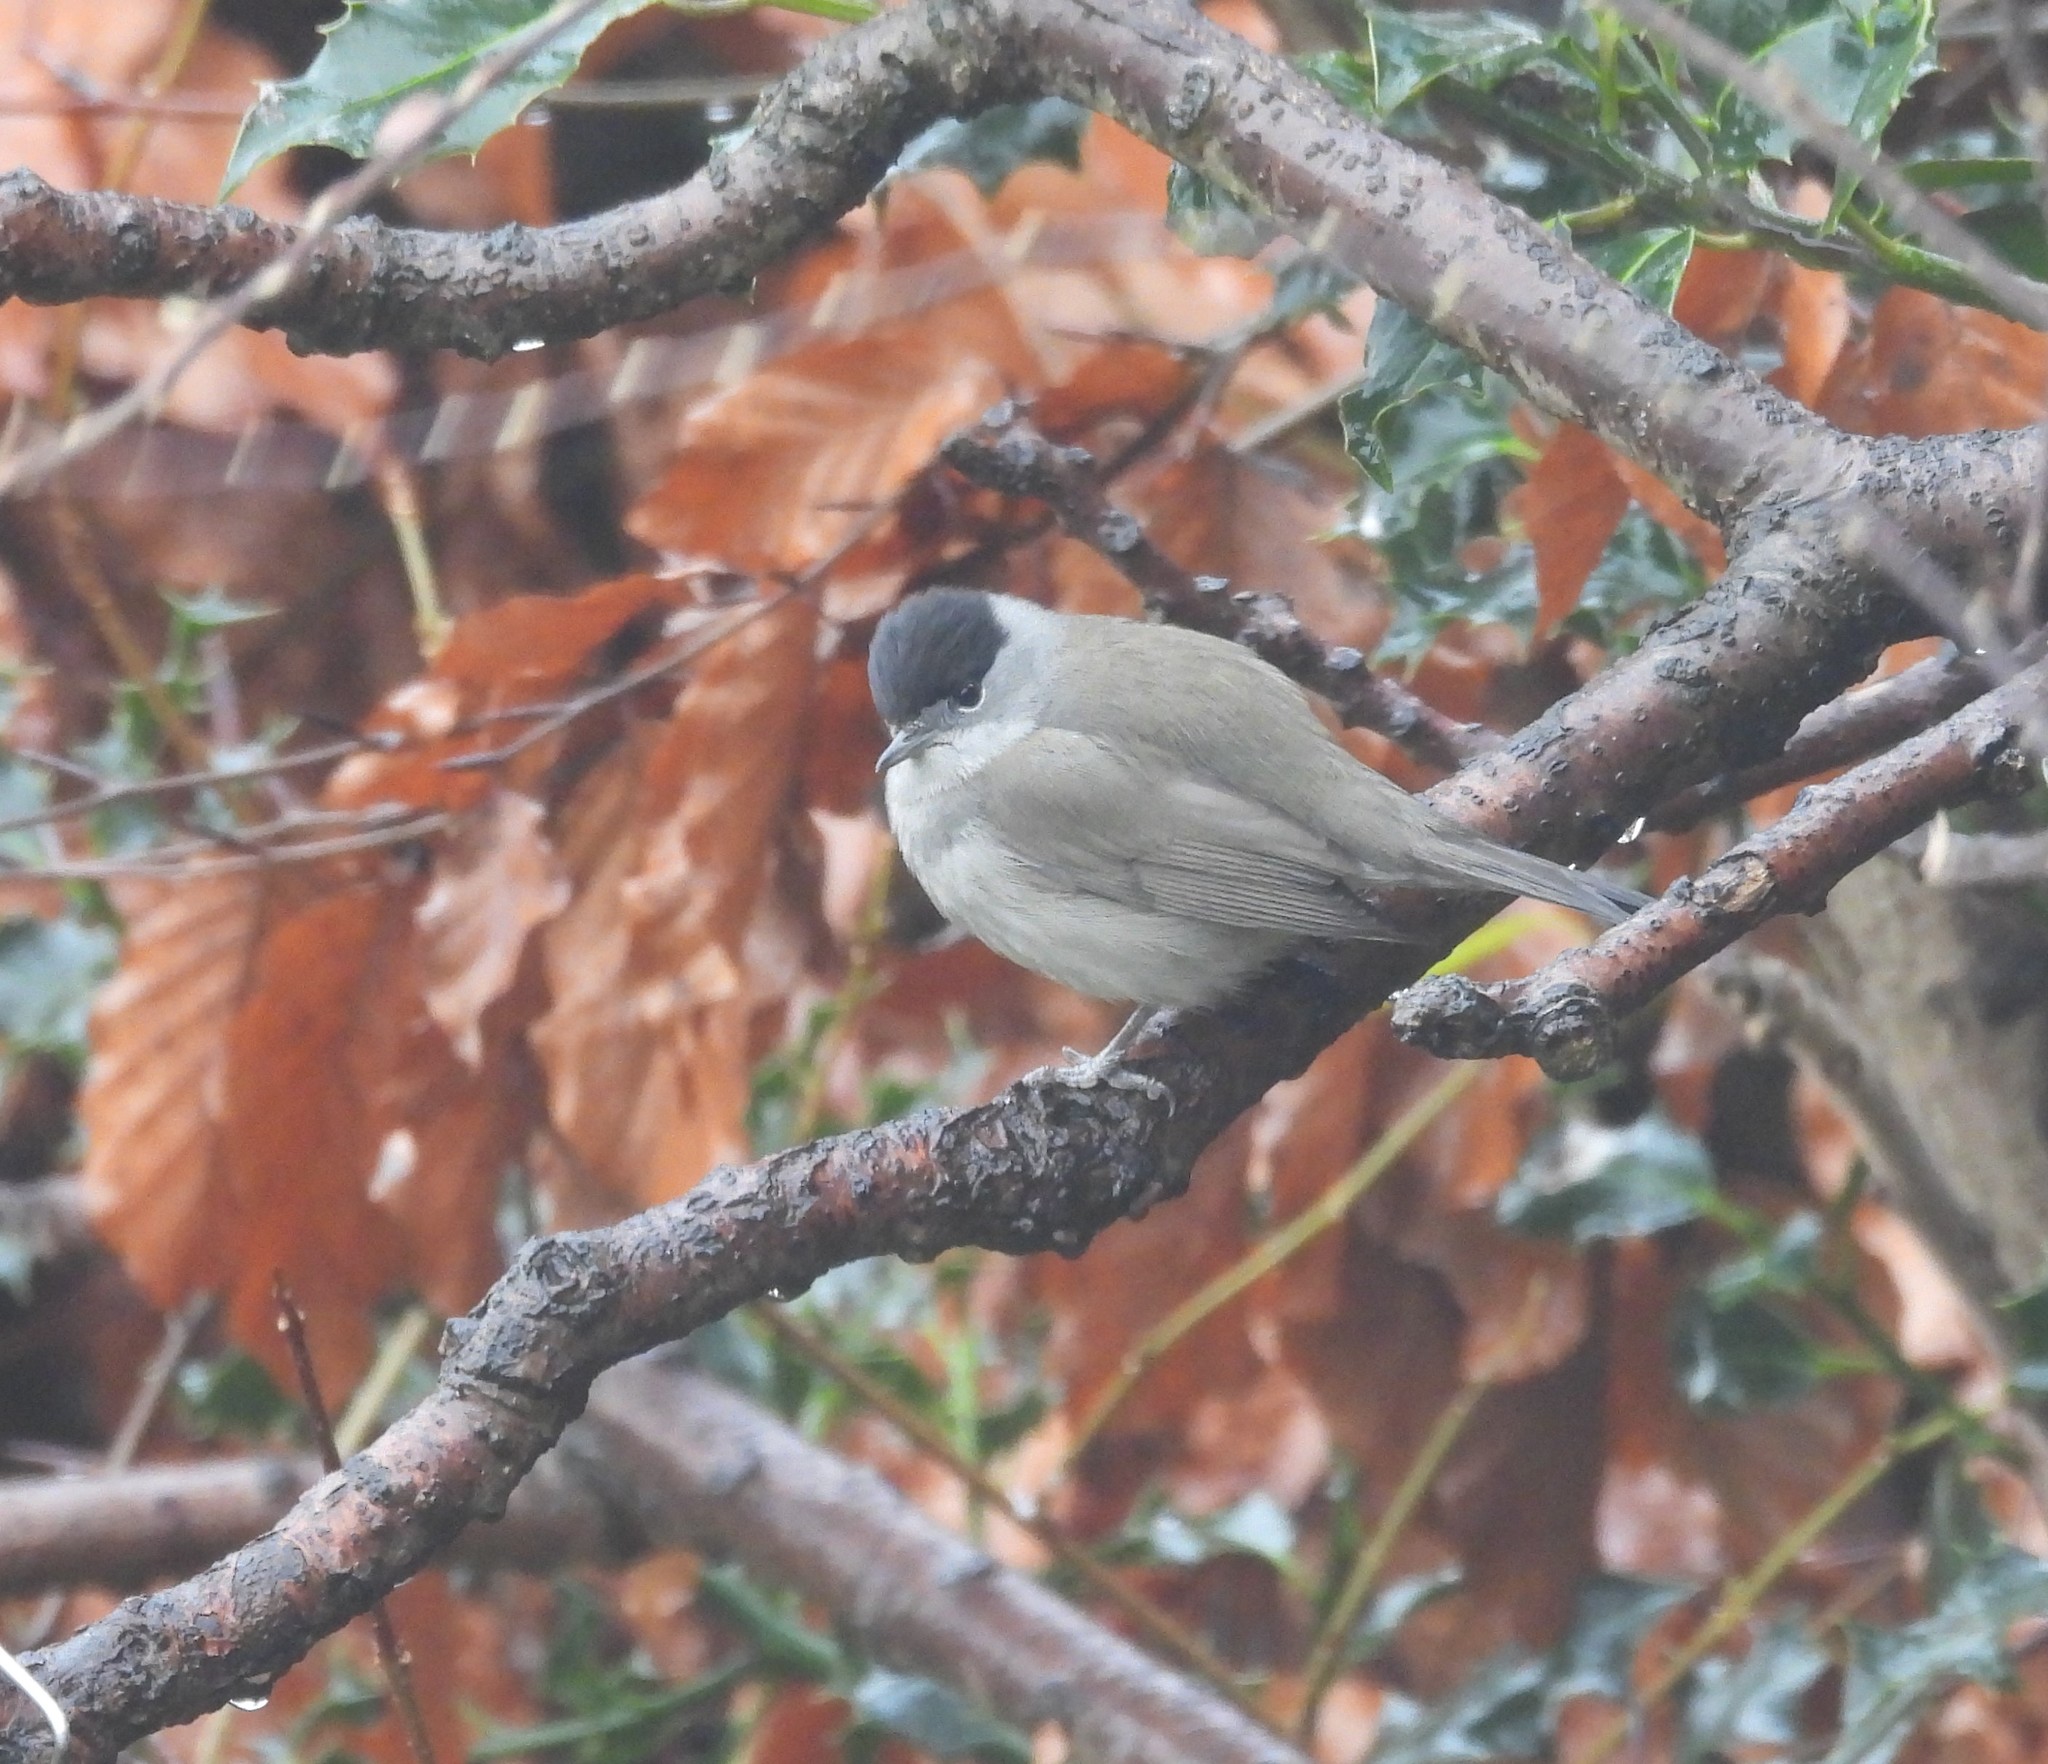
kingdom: Animalia
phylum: Chordata
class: Aves
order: Passeriformes
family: Sylviidae
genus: Sylvia
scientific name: Sylvia atricapilla
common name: Eurasian blackcap
